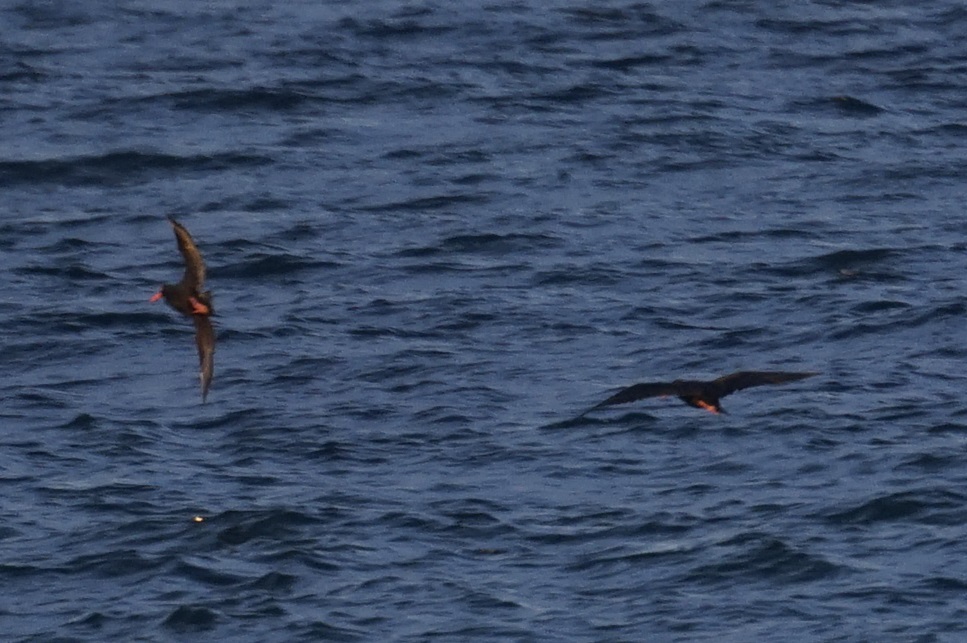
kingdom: Animalia
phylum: Chordata
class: Aves
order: Charadriiformes
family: Haematopodidae
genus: Haematopus
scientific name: Haematopus fuliginosus
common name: Sooty oystercatcher
